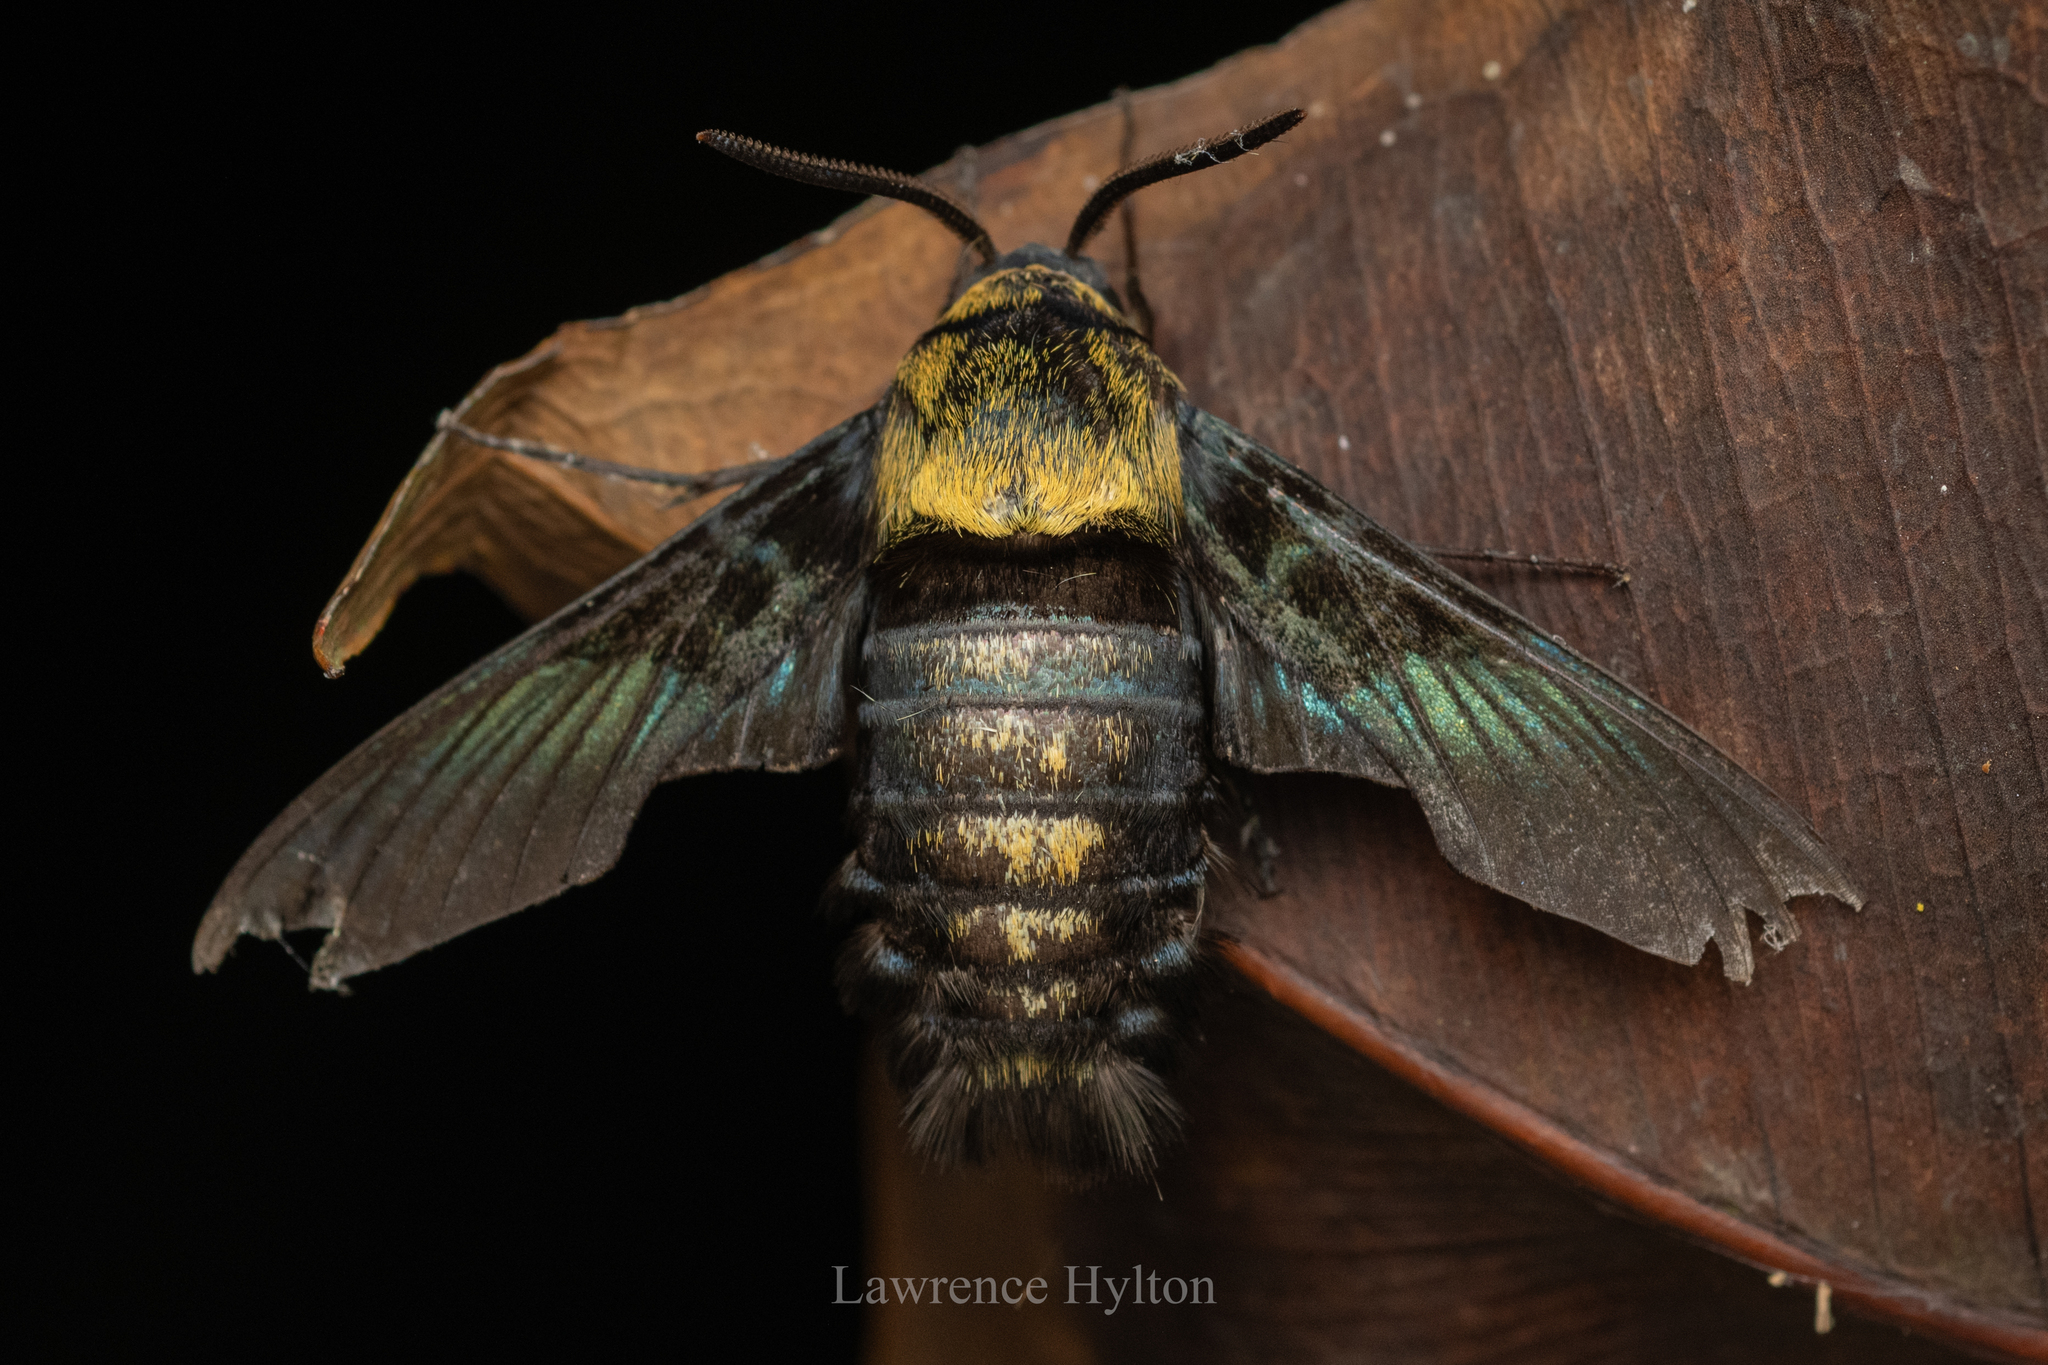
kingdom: Animalia
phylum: Arthropoda
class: Insecta
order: Lepidoptera
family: Sphingidae
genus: Sataspes
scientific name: Sataspes tagalica
